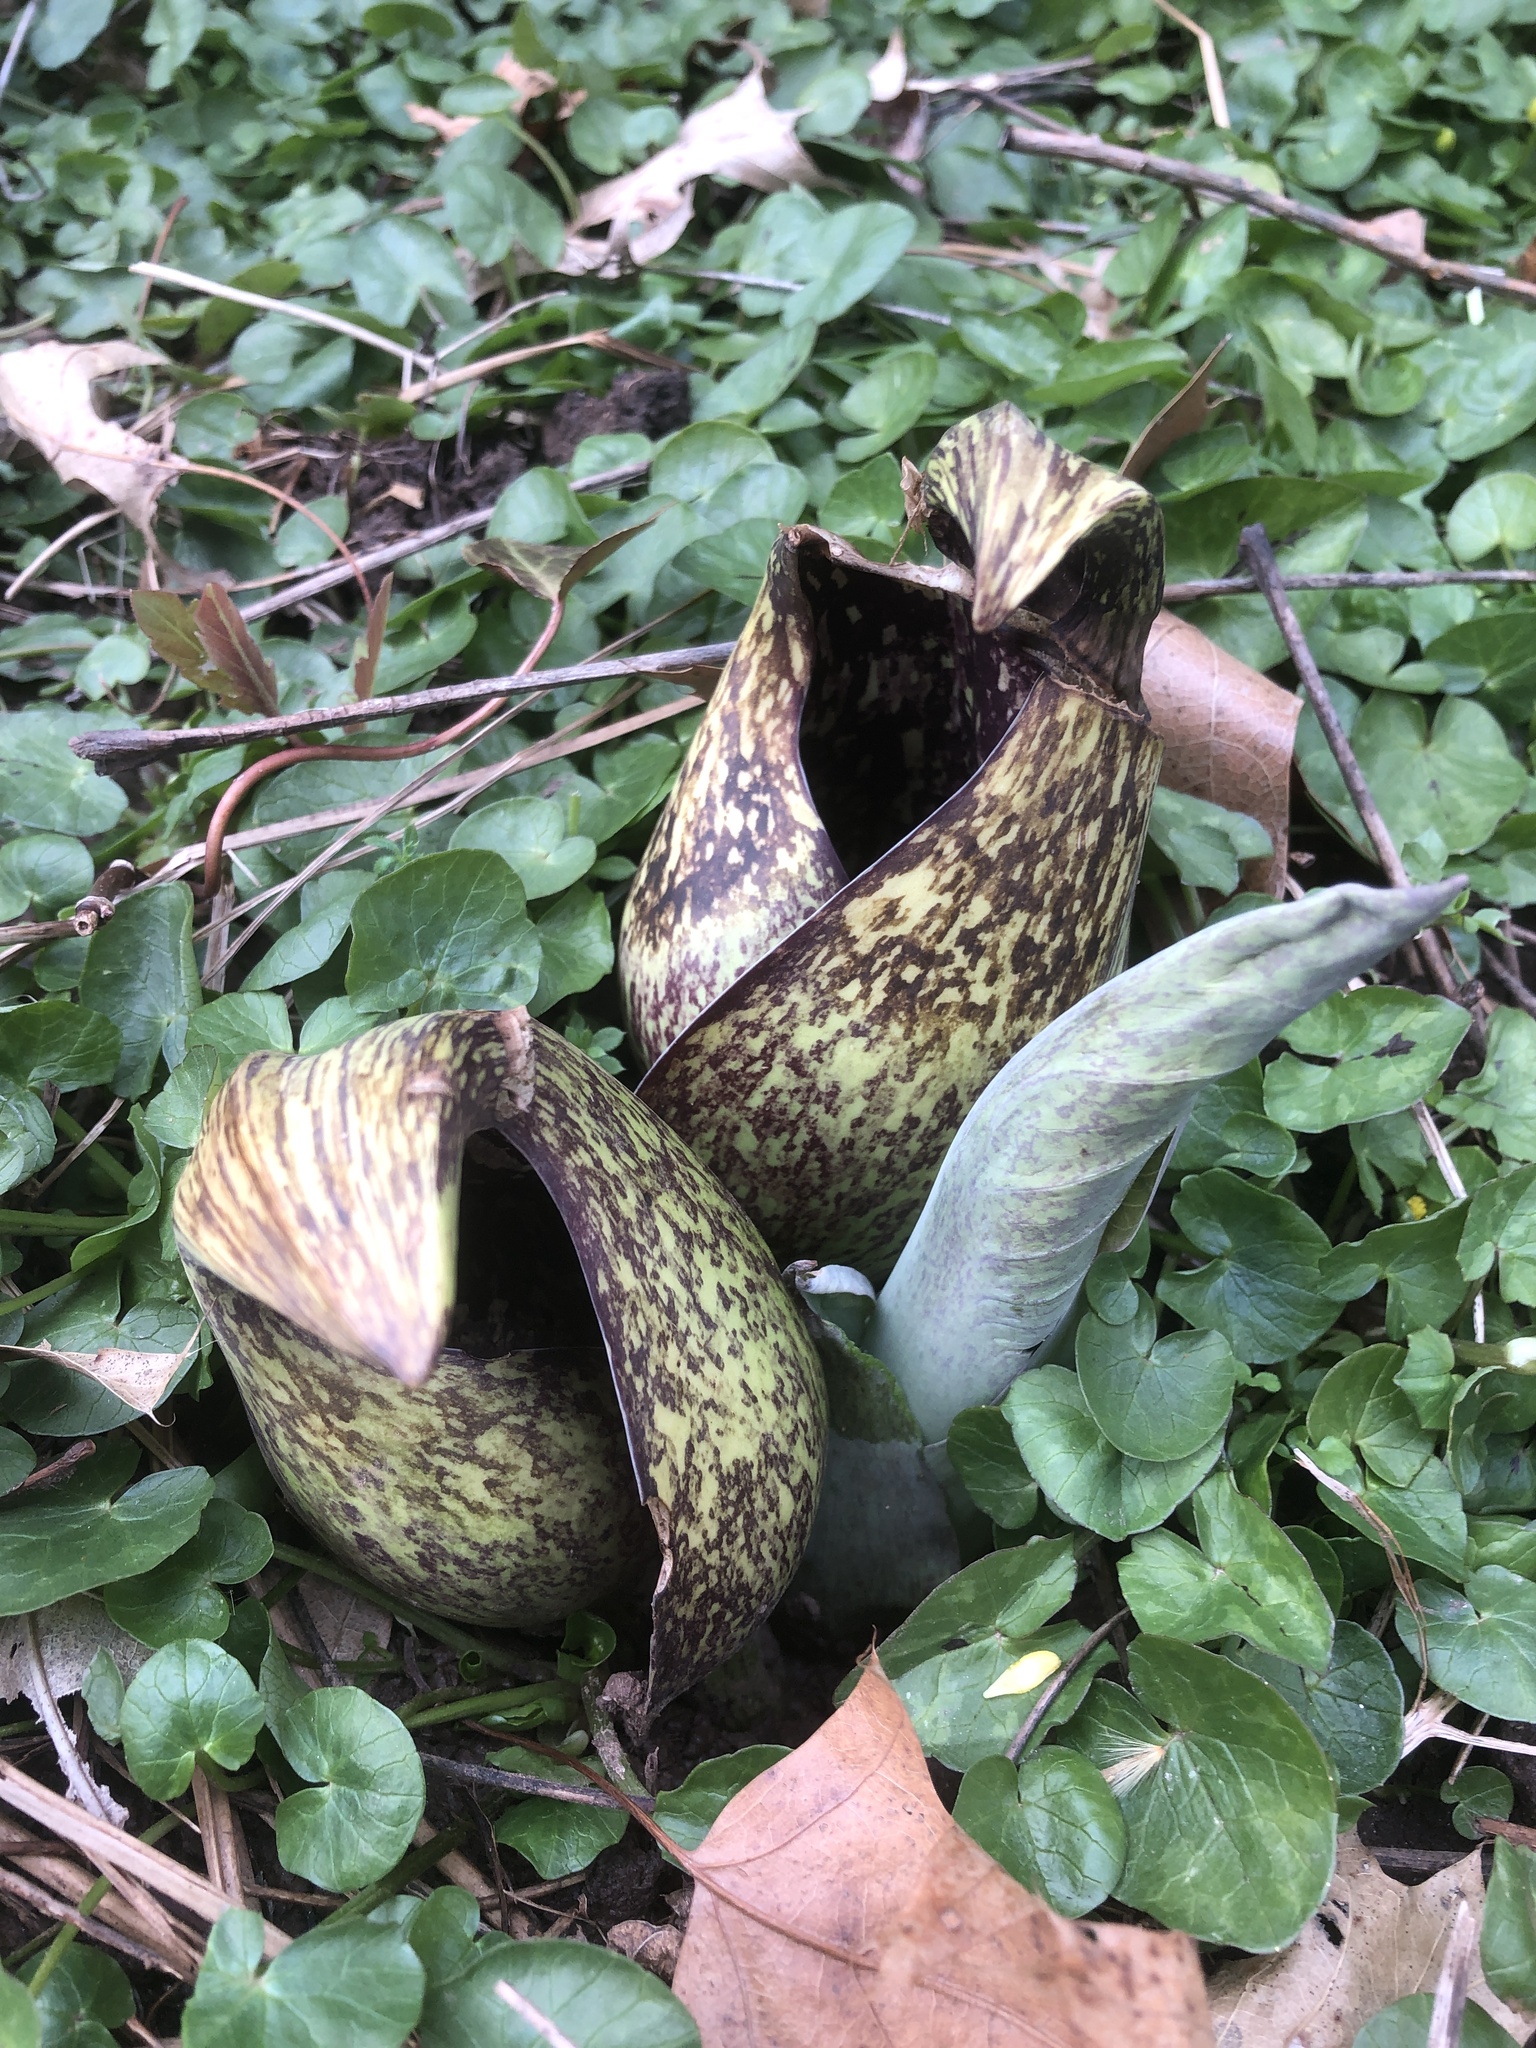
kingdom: Plantae
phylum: Tracheophyta
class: Liliopsida
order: Alismatales
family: Araceae
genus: Symplocarpus
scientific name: Symplocarpus foetidus
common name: Eastern skunk cabbage
